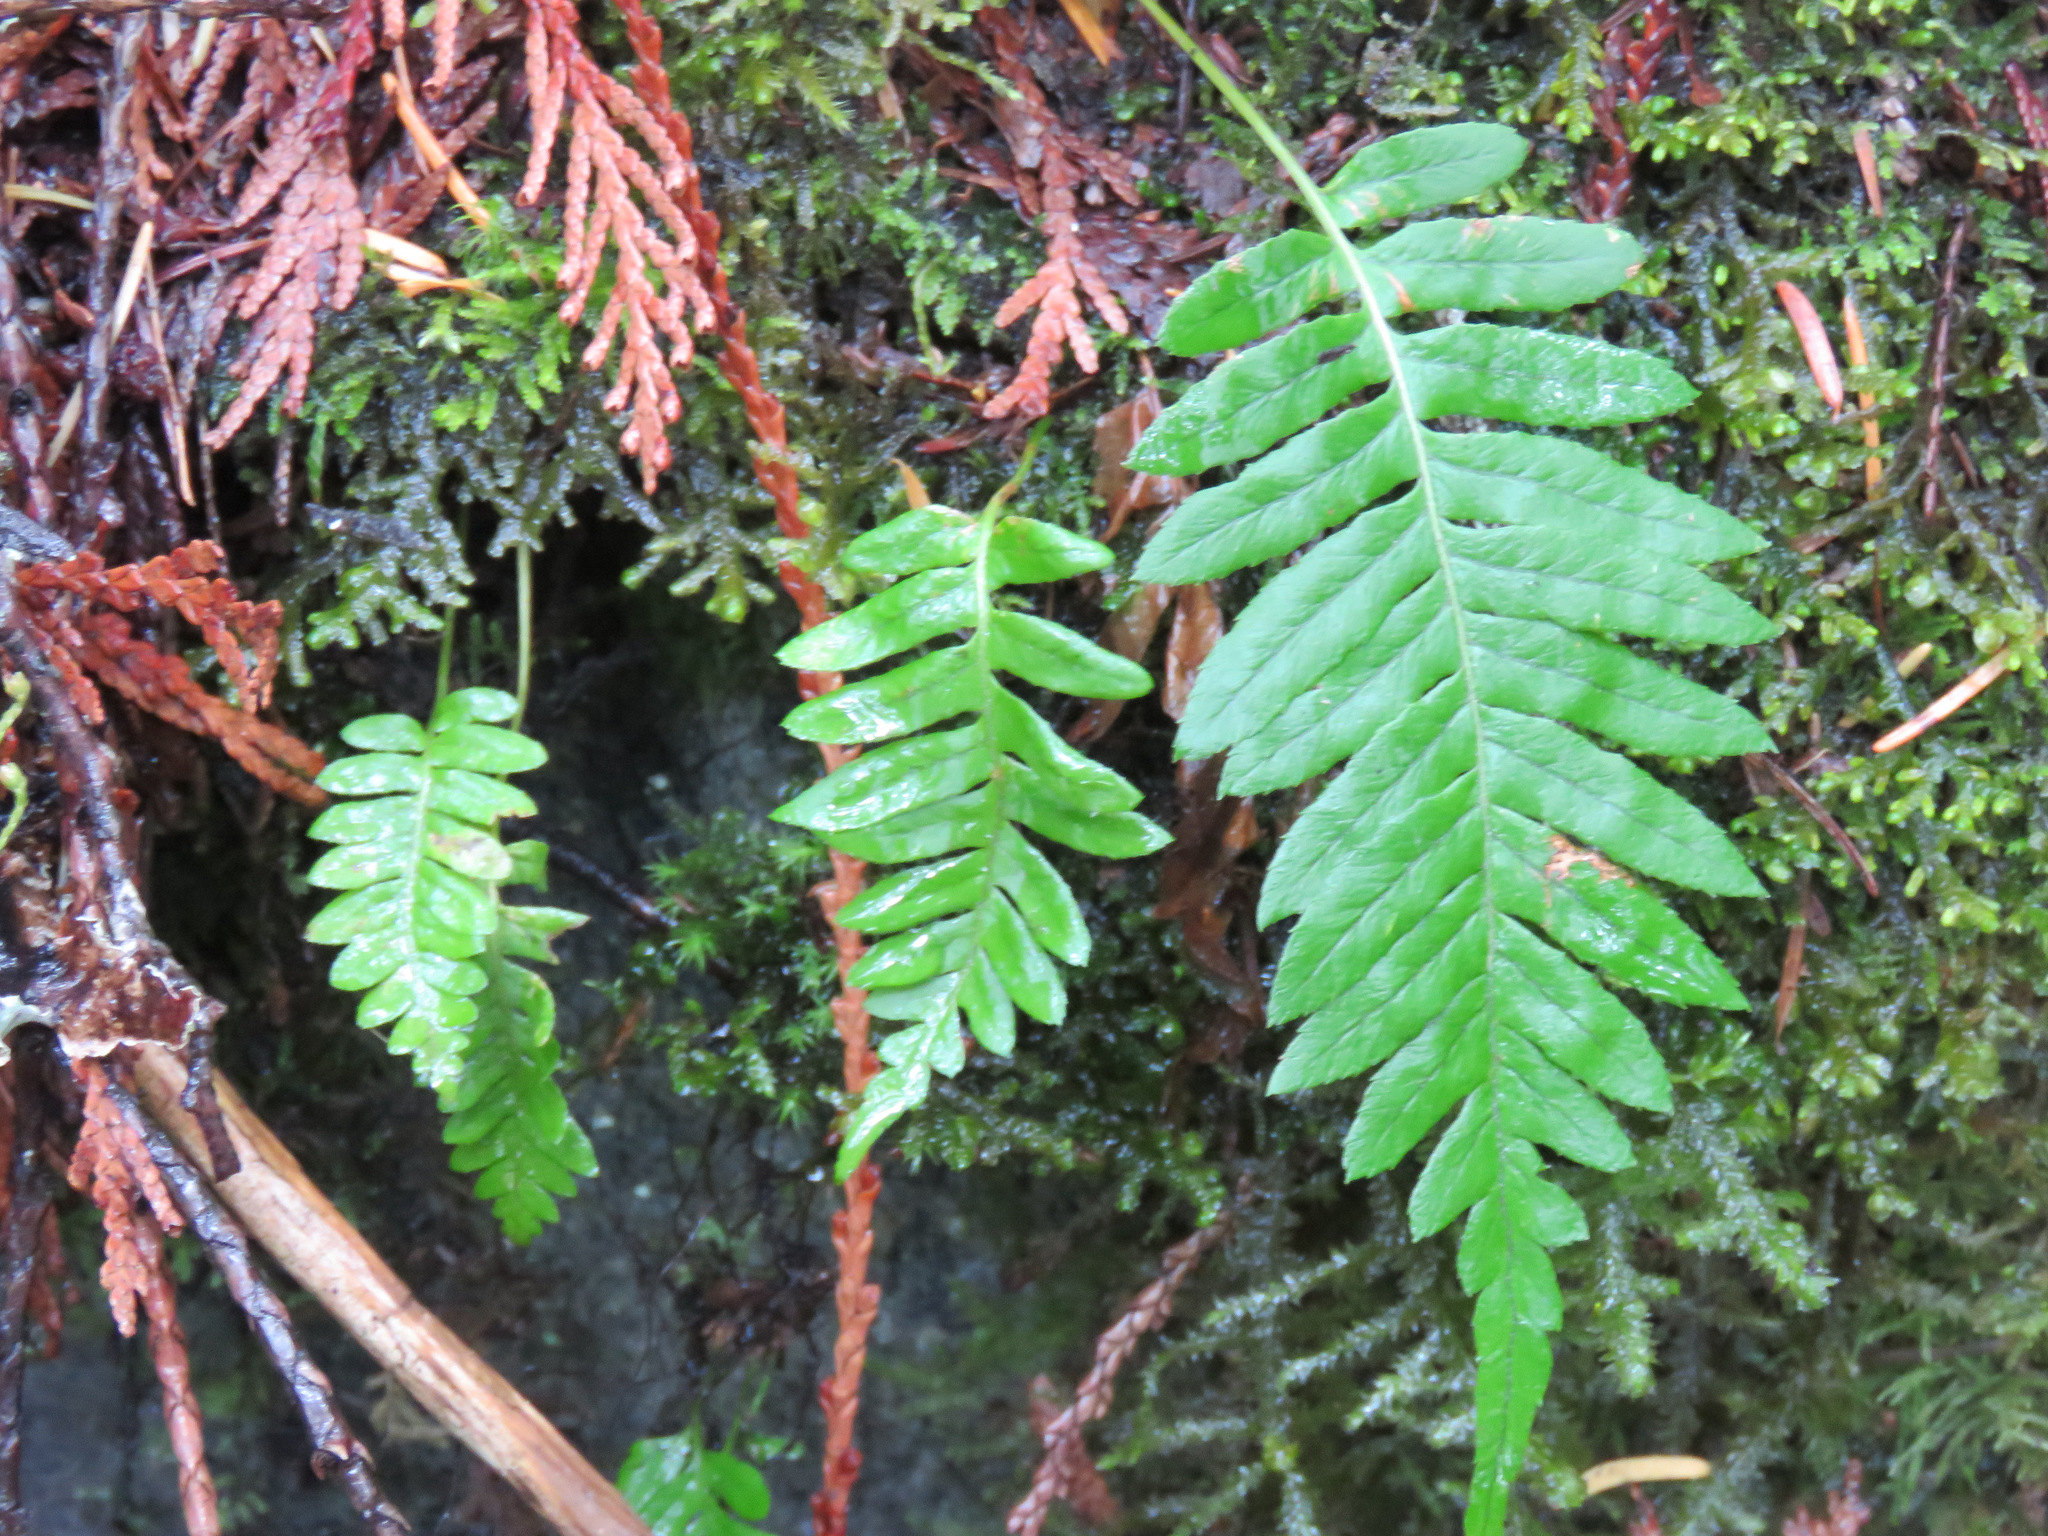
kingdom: Plantae
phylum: Tracheophyta
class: Polypodiopsida
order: Polypodiales
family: Polypodiaceae
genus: Polypodium
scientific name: Polypodium glycyrrhiza
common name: Licorice fern
